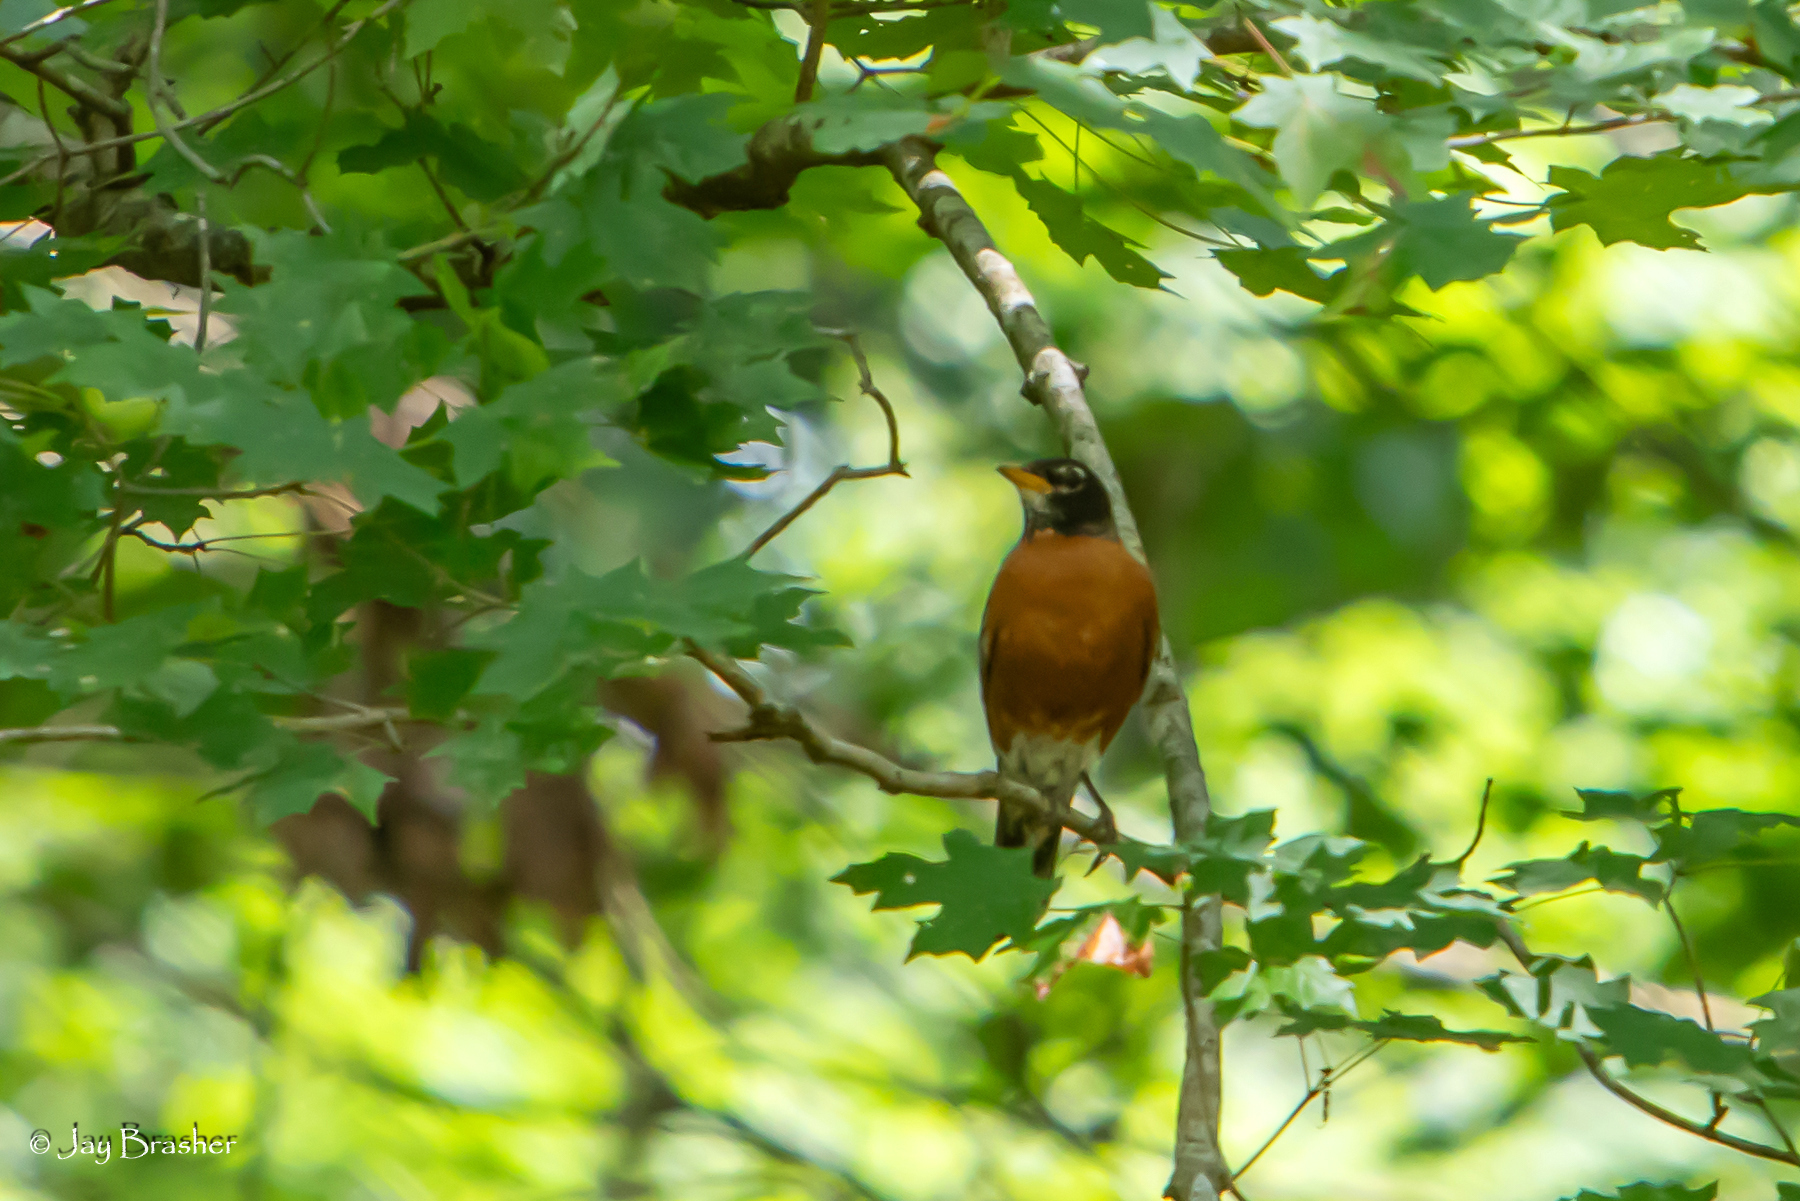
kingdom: Animalia
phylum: Chordata
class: Aves
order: Passeriformes
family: Turdidae
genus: Turdus
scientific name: Turdus migratorius
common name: American robin
